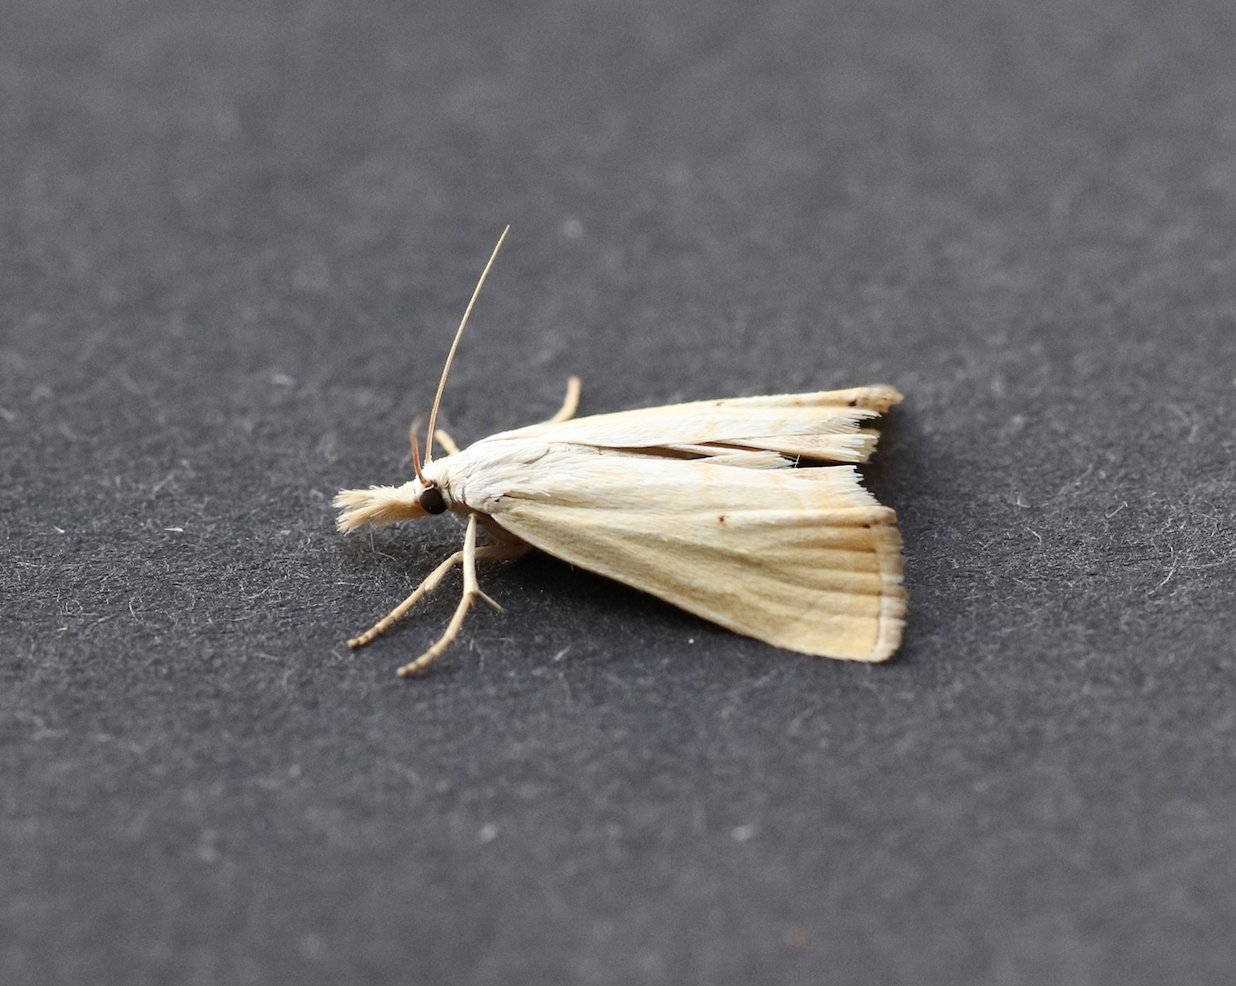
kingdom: Animalia
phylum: Arthropoda
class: Insecta
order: Lepidoptera
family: Crambidae
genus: Xanthocrambus
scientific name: Xanthocrambus saxonellus
